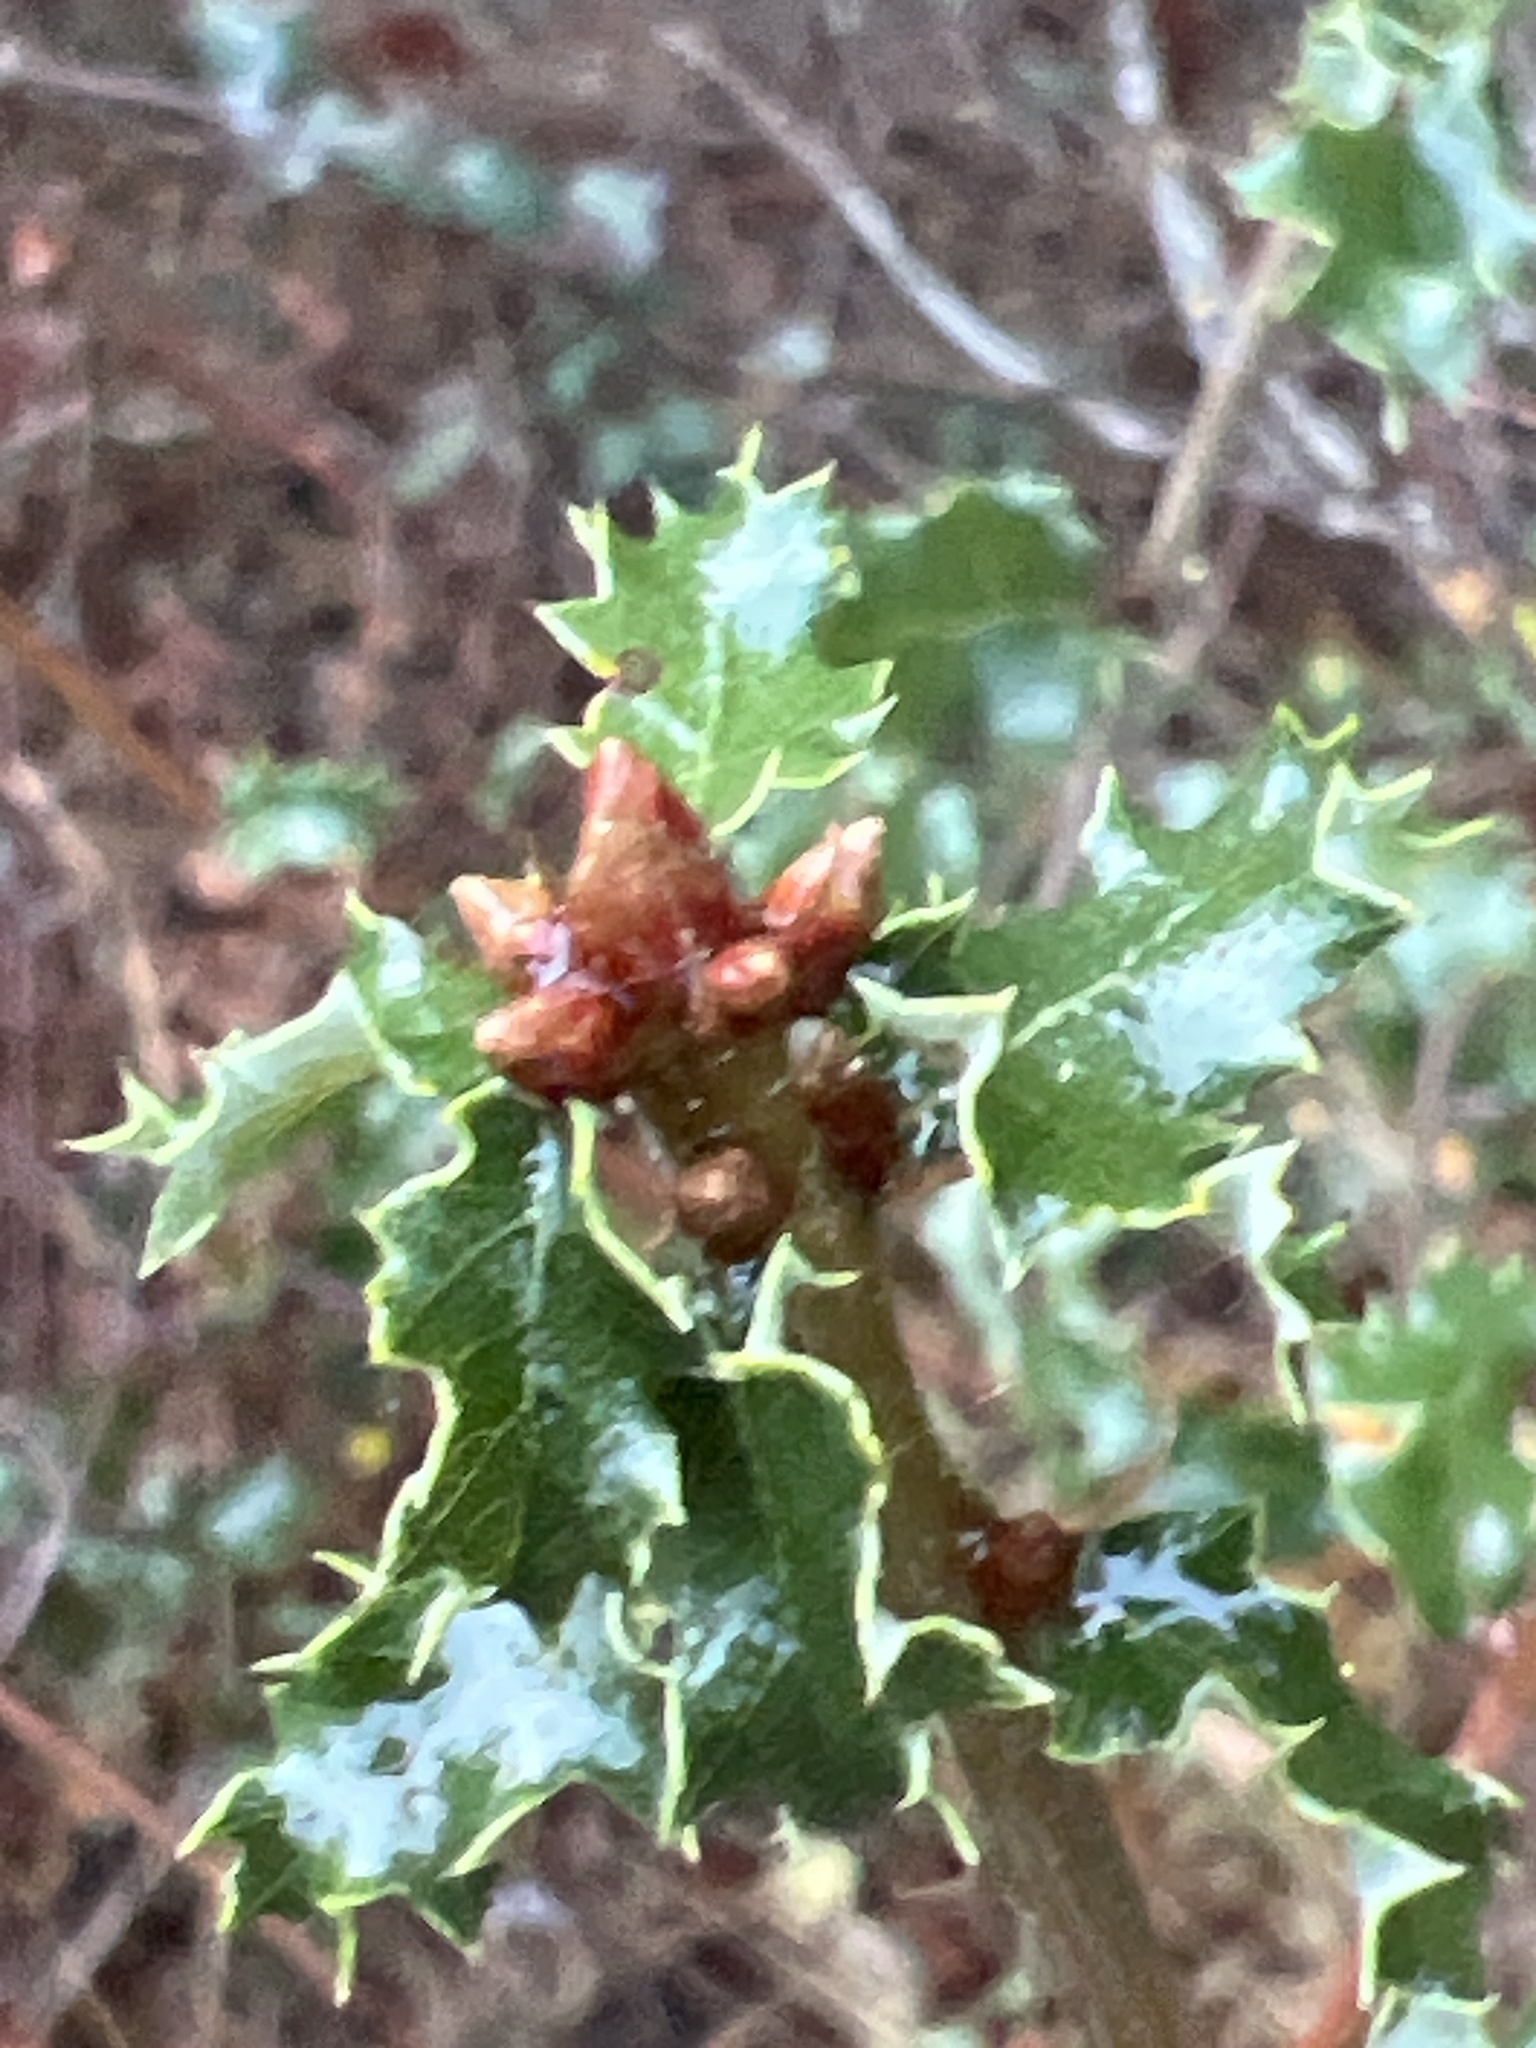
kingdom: Plantae
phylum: Tracheophyta
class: Magnoliopsida
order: Fagales
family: Fagaceae
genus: Quercus
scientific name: Quercus berberidifolia
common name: California scrub oak
